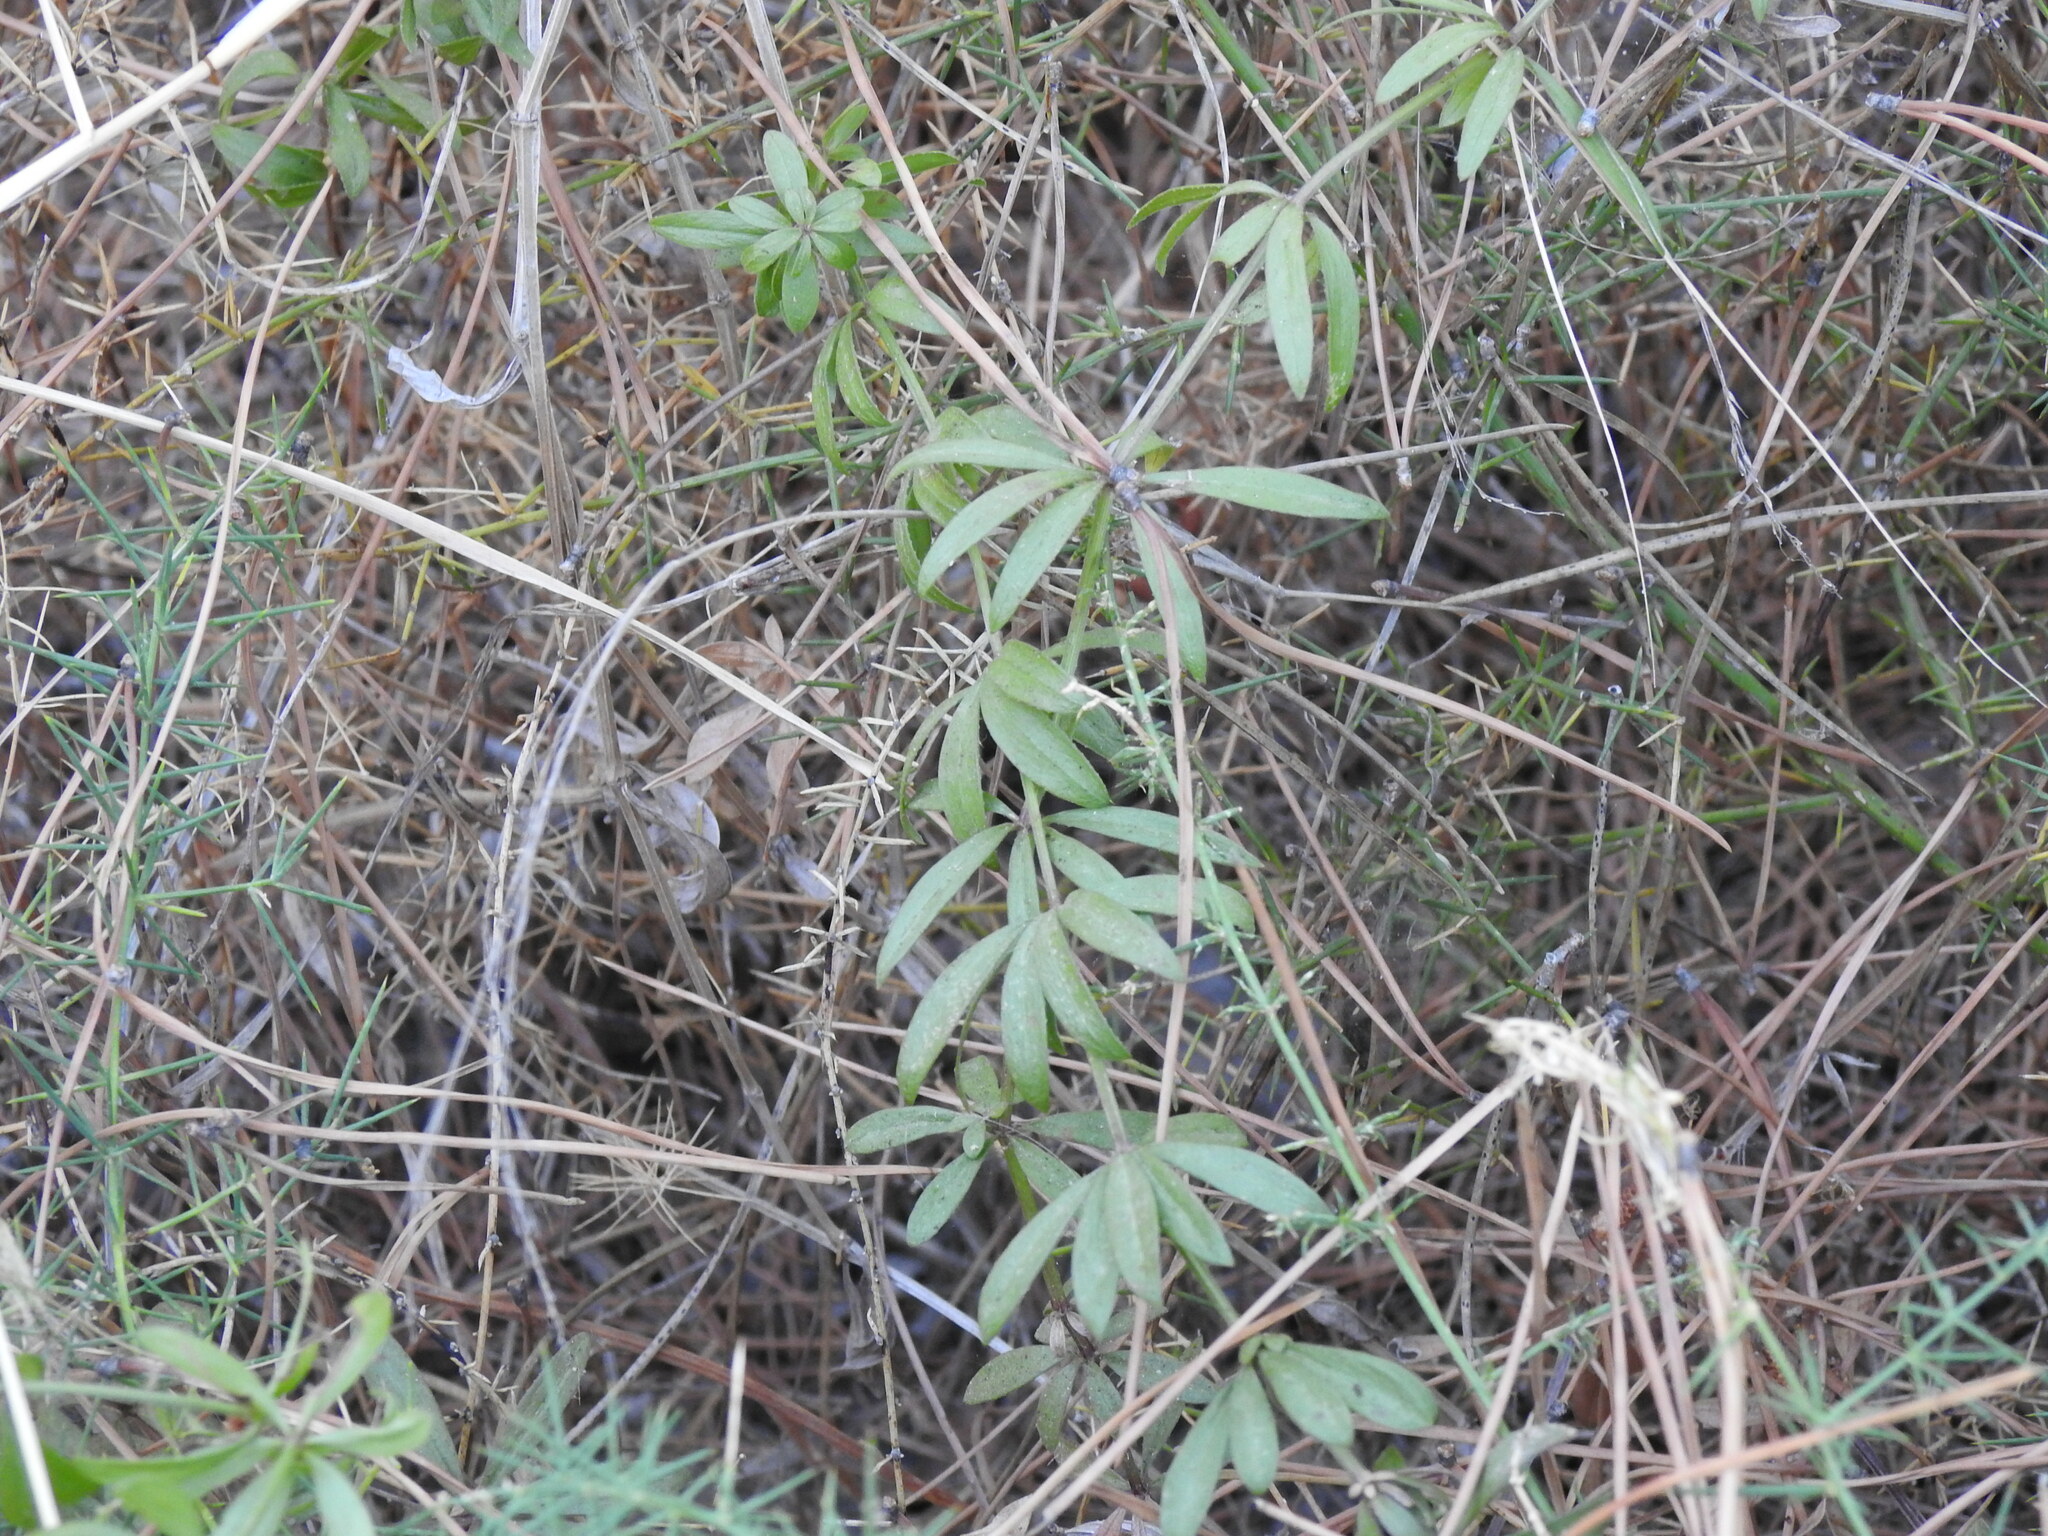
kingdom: Plantae
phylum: Tracheophyta
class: Magnoliopsida
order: Gentianales
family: Rubiaceae
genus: Rubia
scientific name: Rubia peregrina
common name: Wild madder
